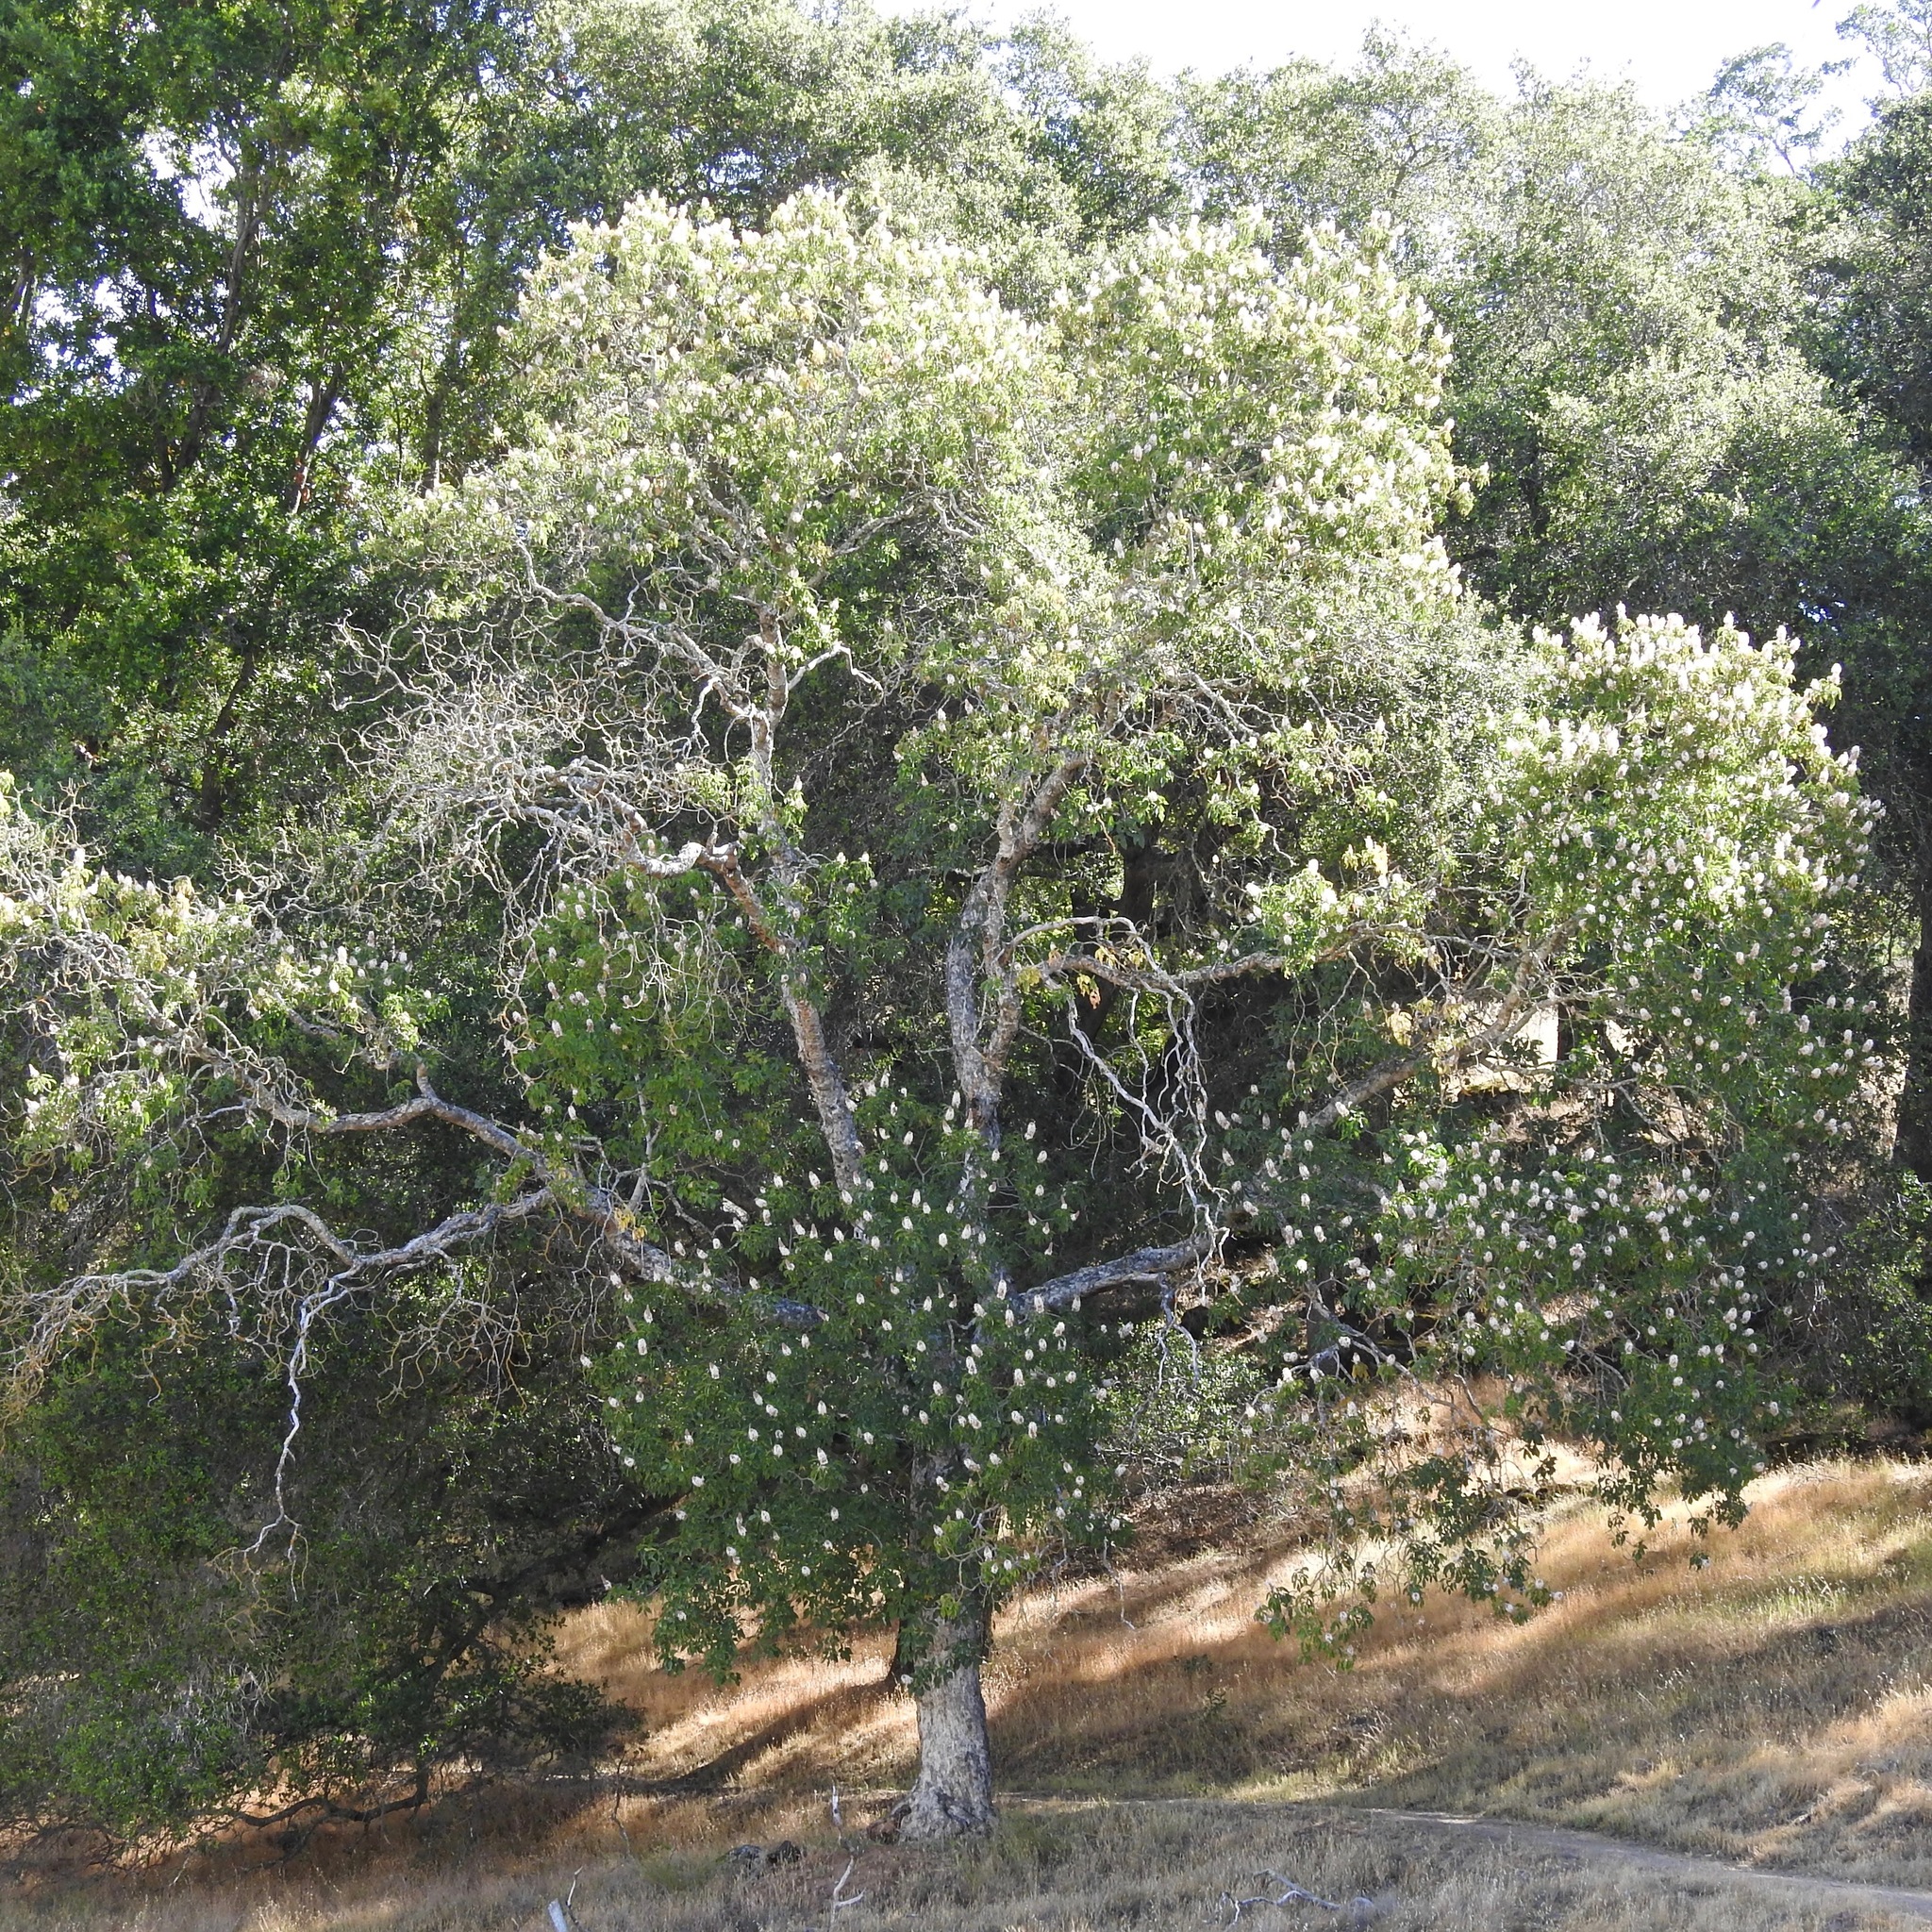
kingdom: Plantae
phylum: Tracheophyta
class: Magnoliopsida
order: Sapindales
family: Sapindaceae
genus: Aesculus
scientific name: Aesculus californica
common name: California buckeye
